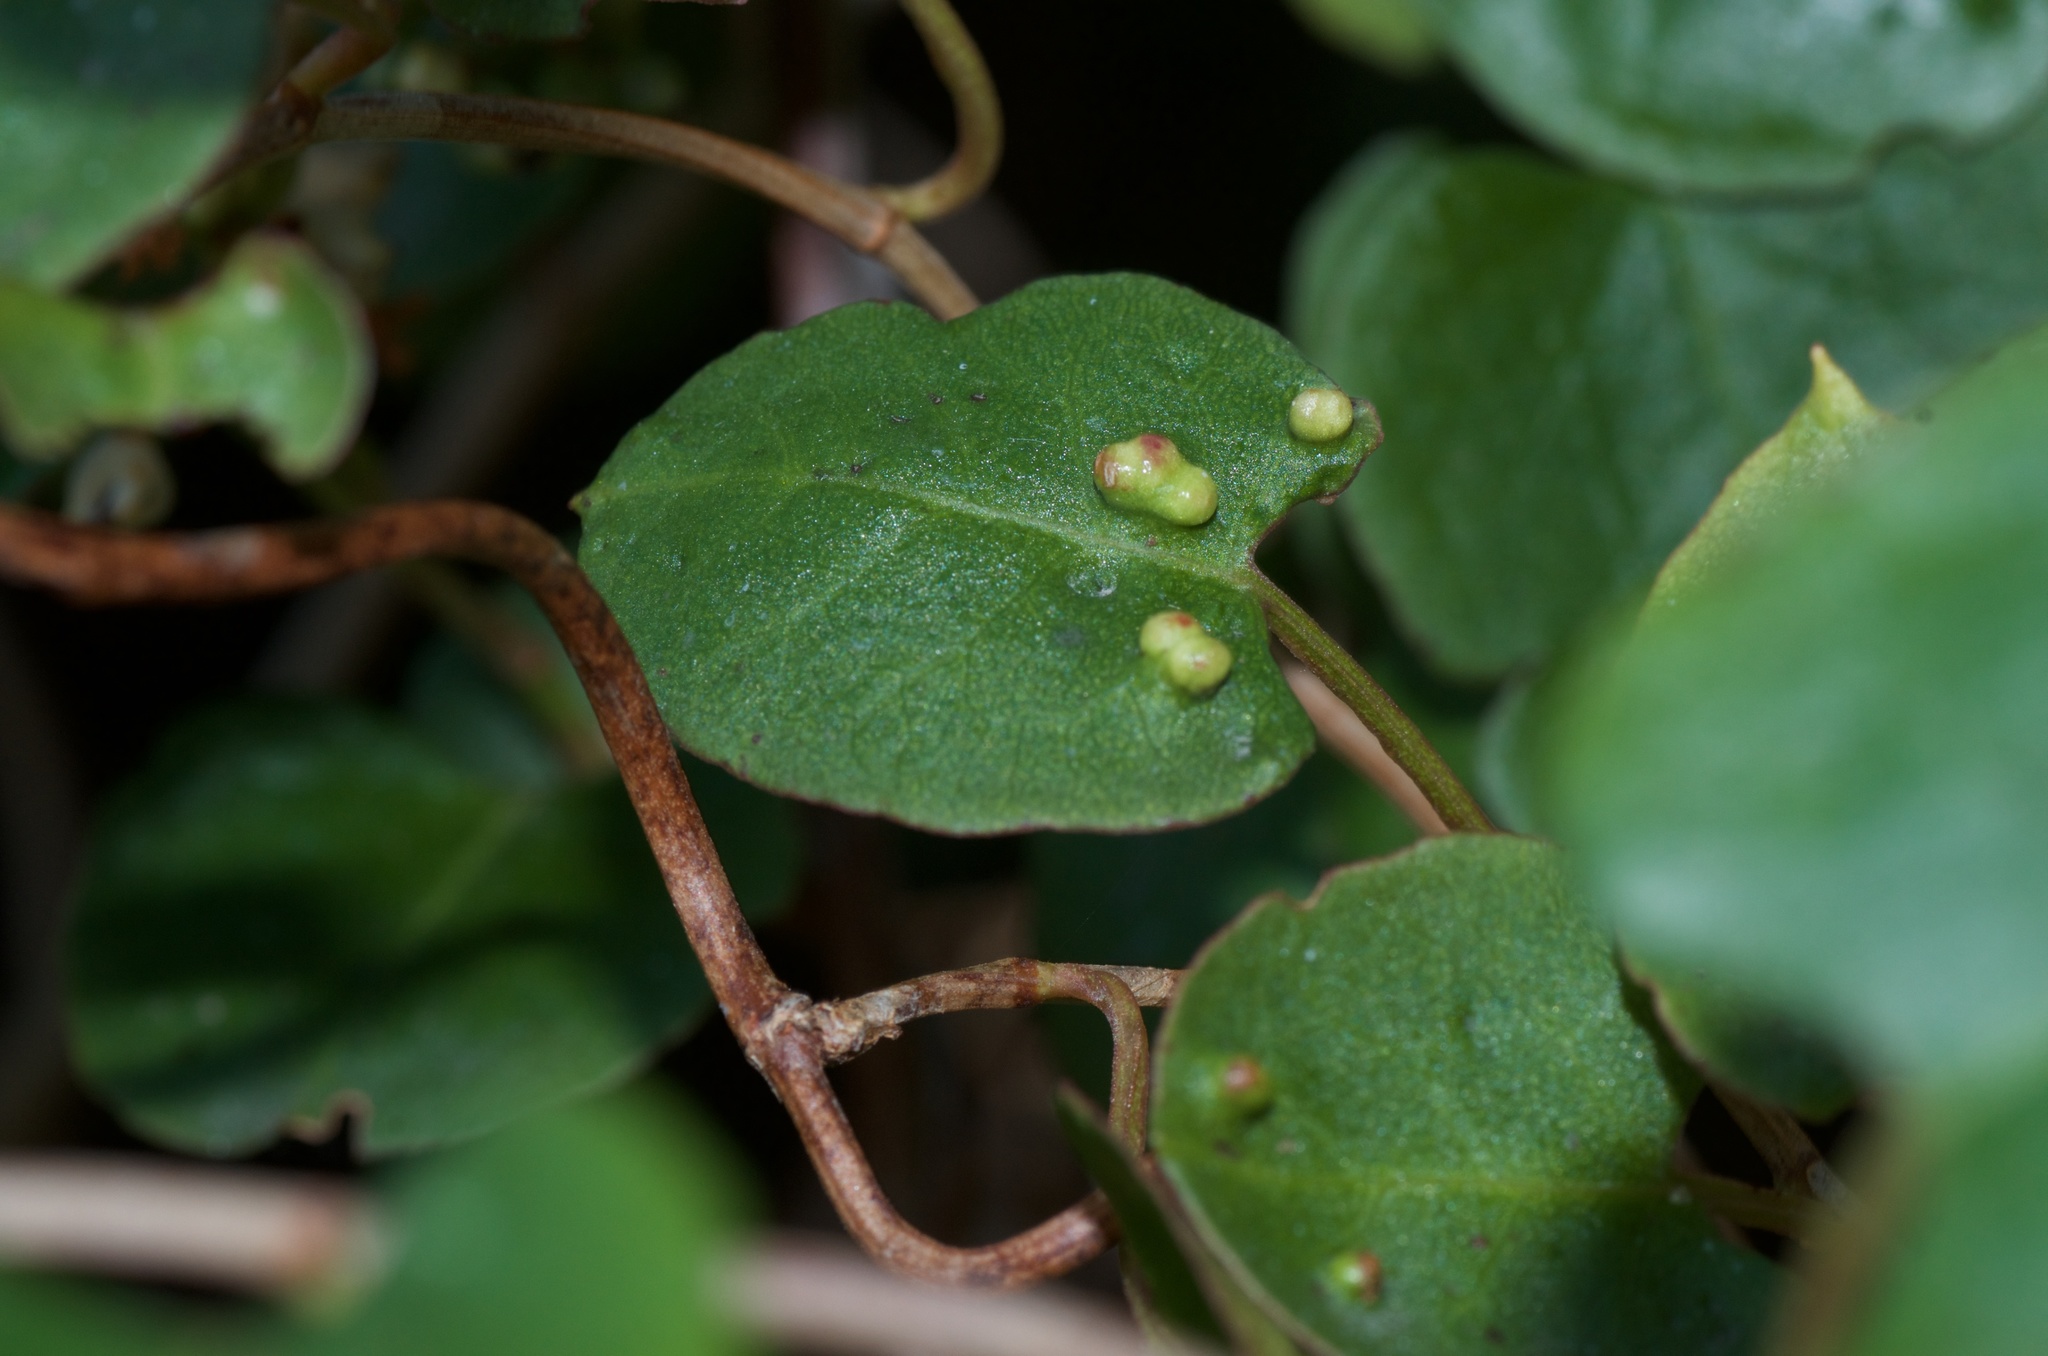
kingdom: Animalia
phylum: Arthropoda
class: Arachnida
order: Trombidiformes
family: Eriophyidae
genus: Aceria
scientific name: Aceria lamii
